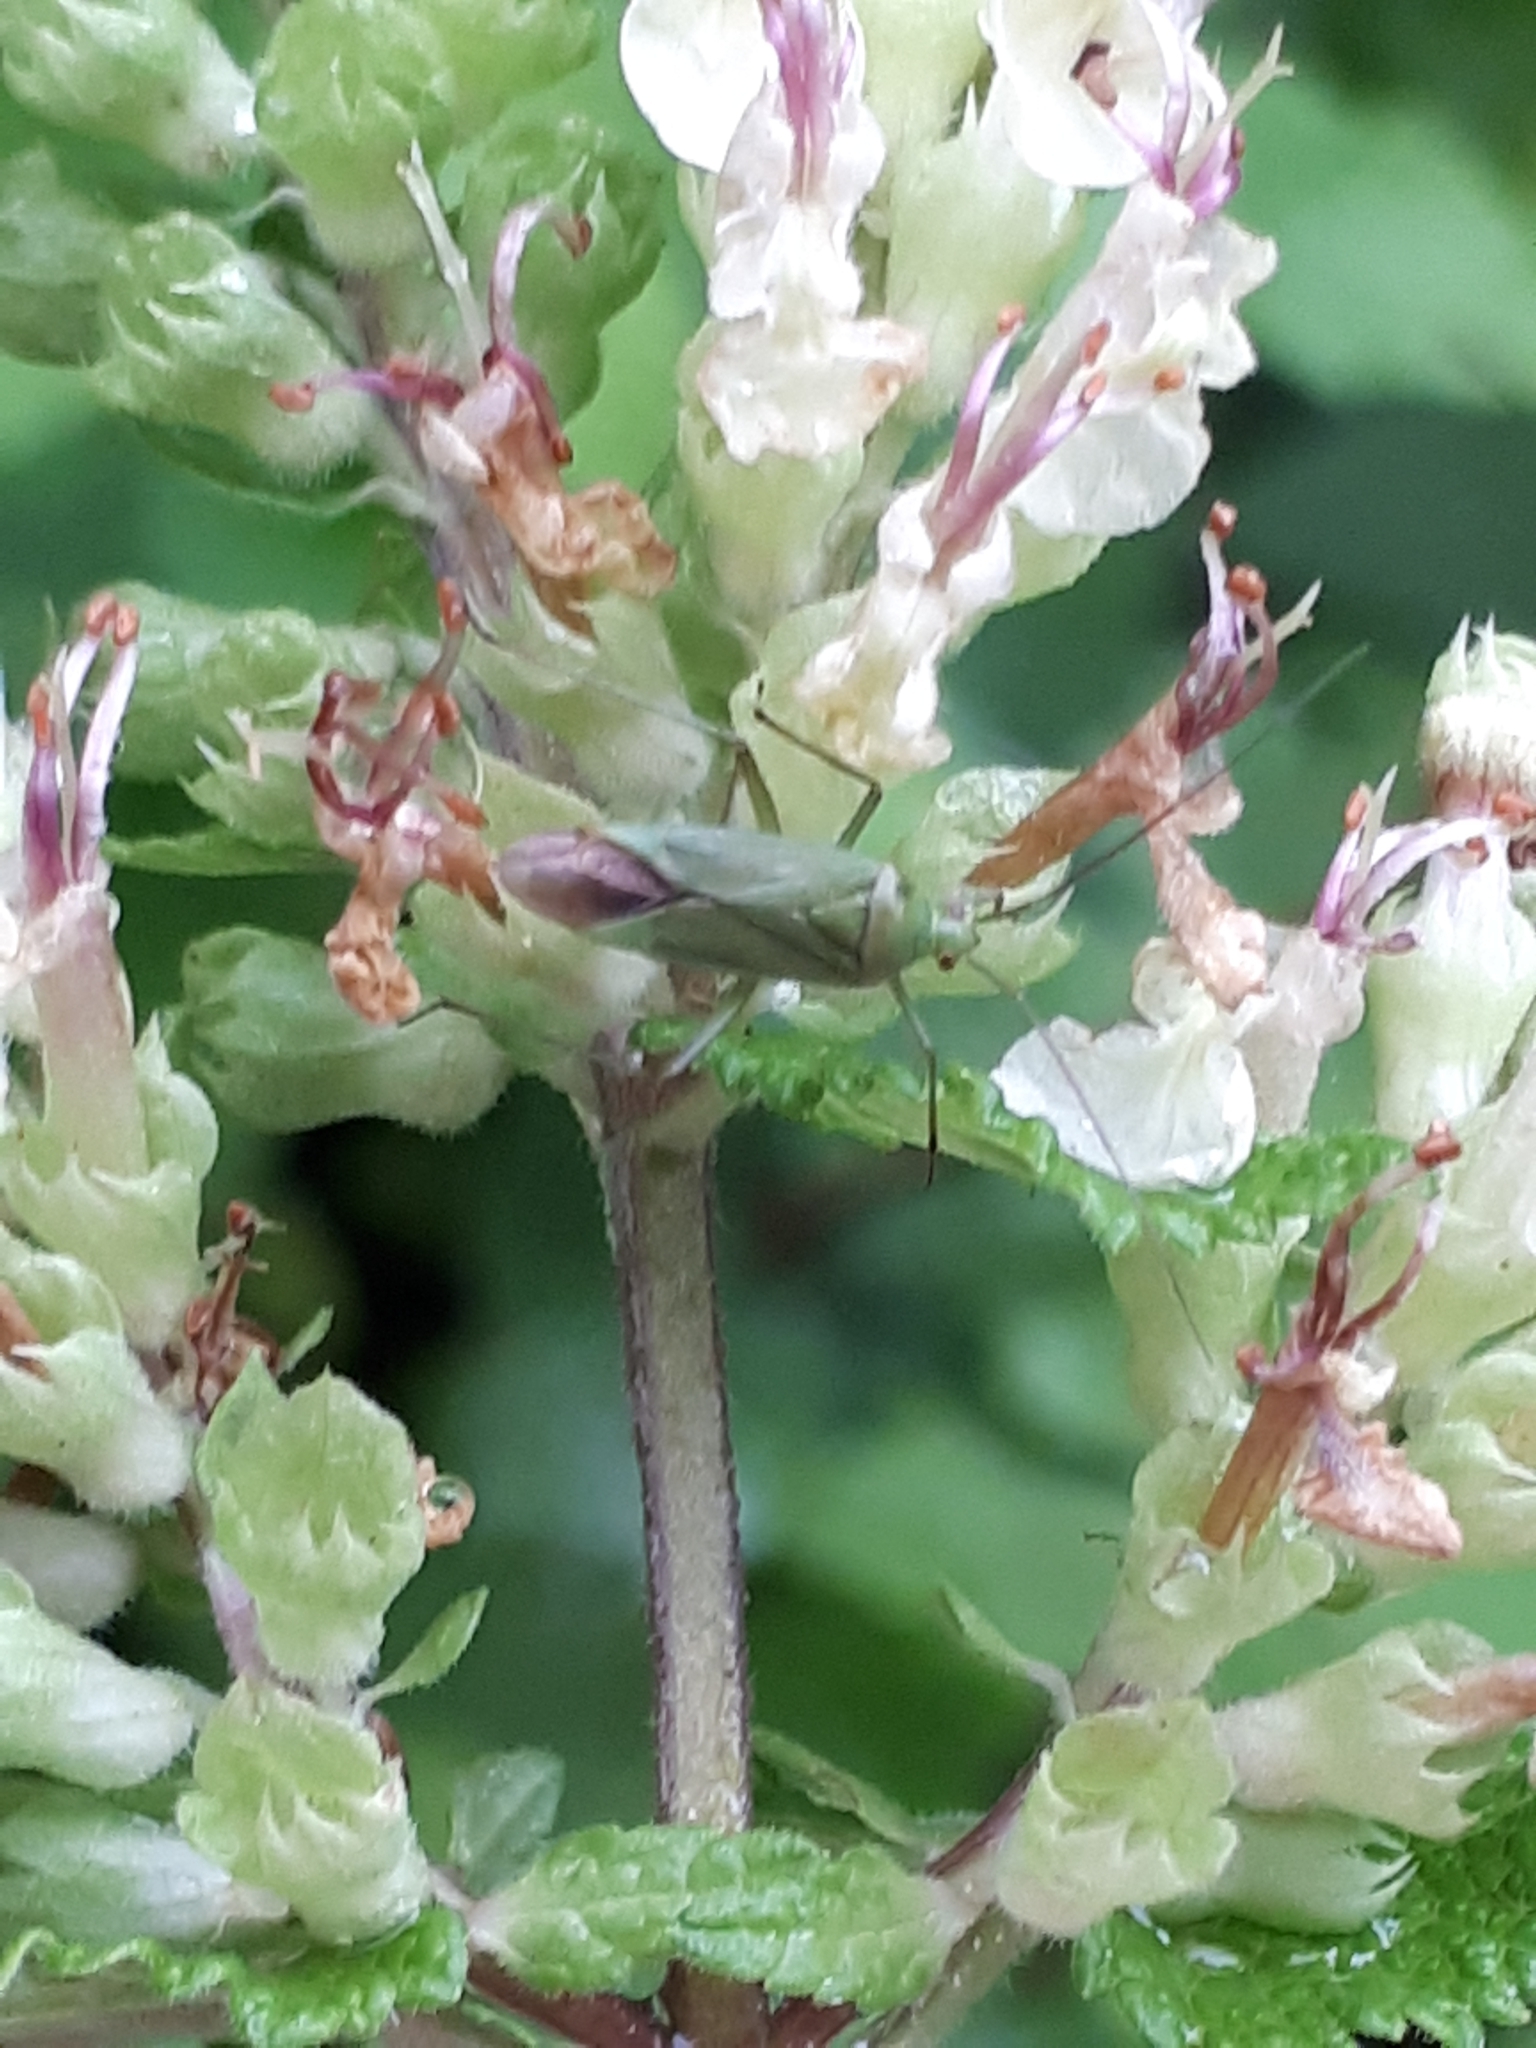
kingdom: Animalia
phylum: Arthropoda
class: Insecta
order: Hemiptera
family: Miridae
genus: Calocoris
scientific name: Calocoris affinis
